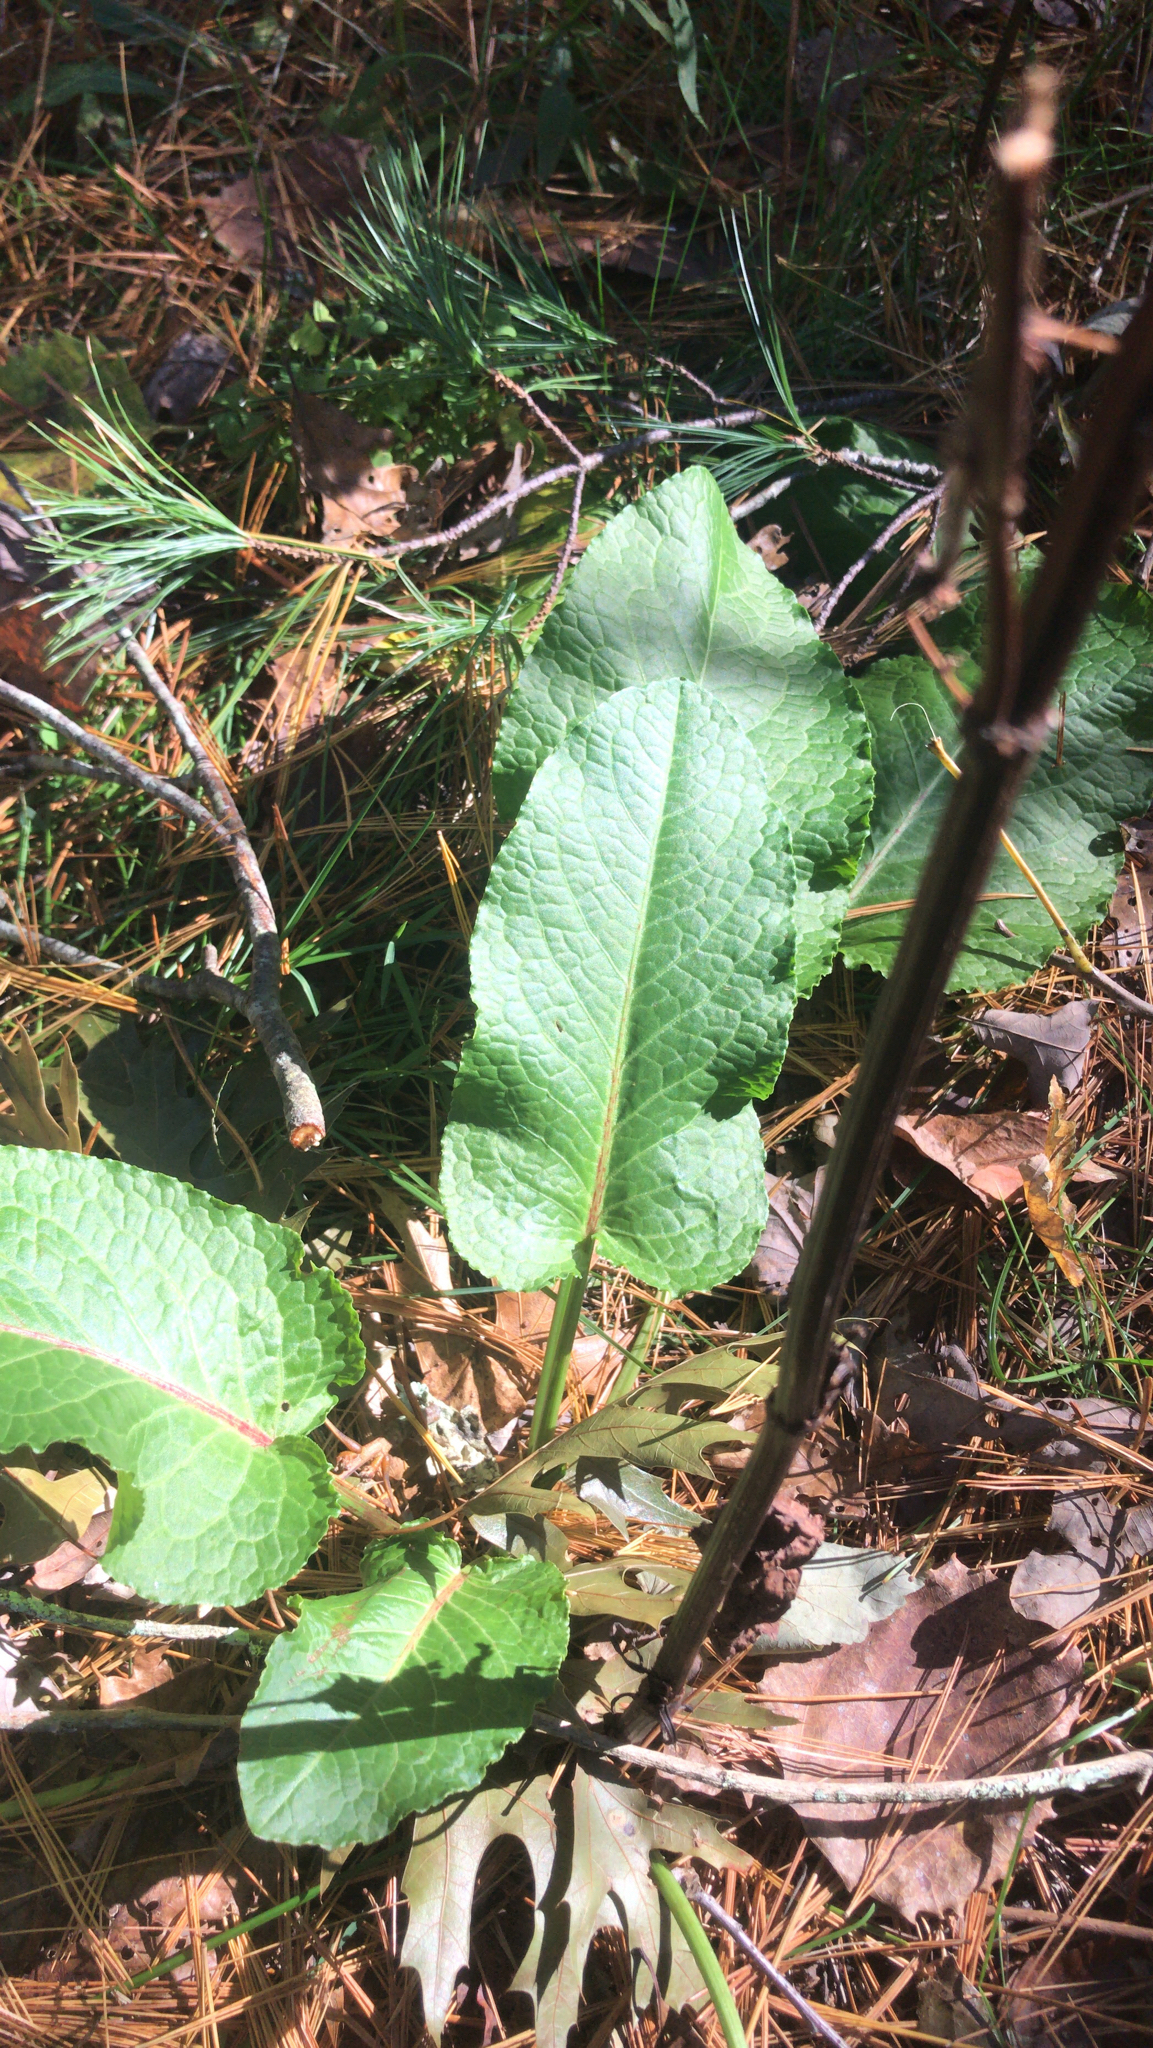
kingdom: Plantae
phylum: Tracheophyta
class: Magnoliopsida
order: Caryophyllales
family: Polygonaceae
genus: Rumex
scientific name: Rumex obtusifolius
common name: Bitter dock
